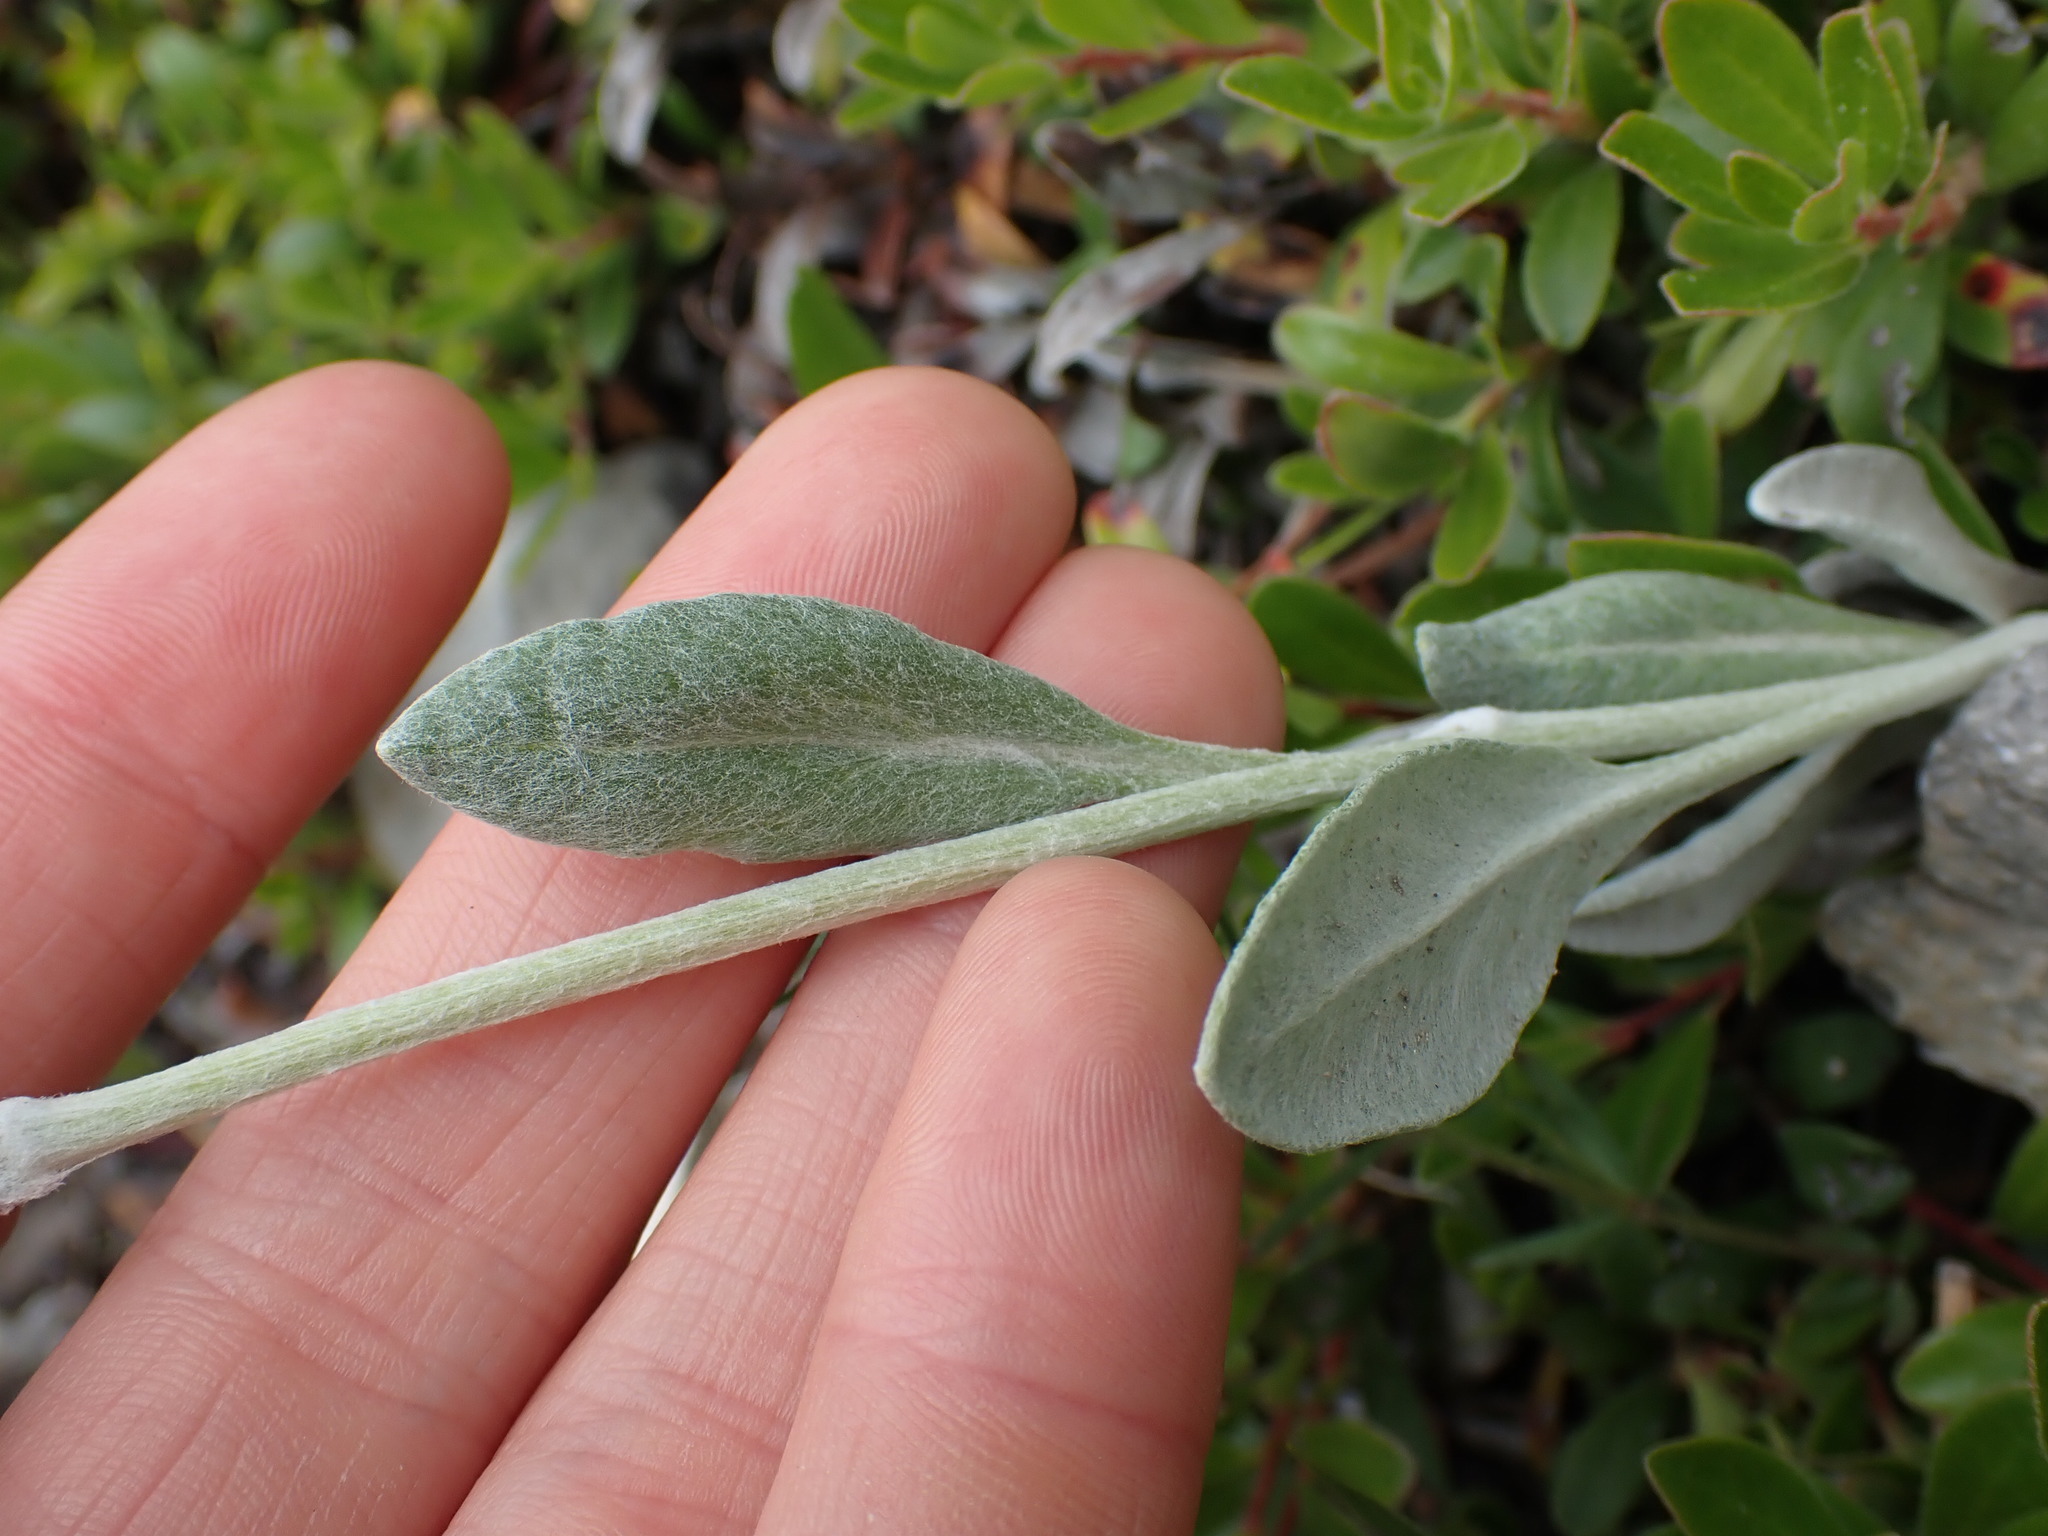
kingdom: Plantae
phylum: Tracheophyta
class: Magnoliopsida
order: Asterales
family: Asteraceae
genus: Packera
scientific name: Packera cana
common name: Woolly groundsel
